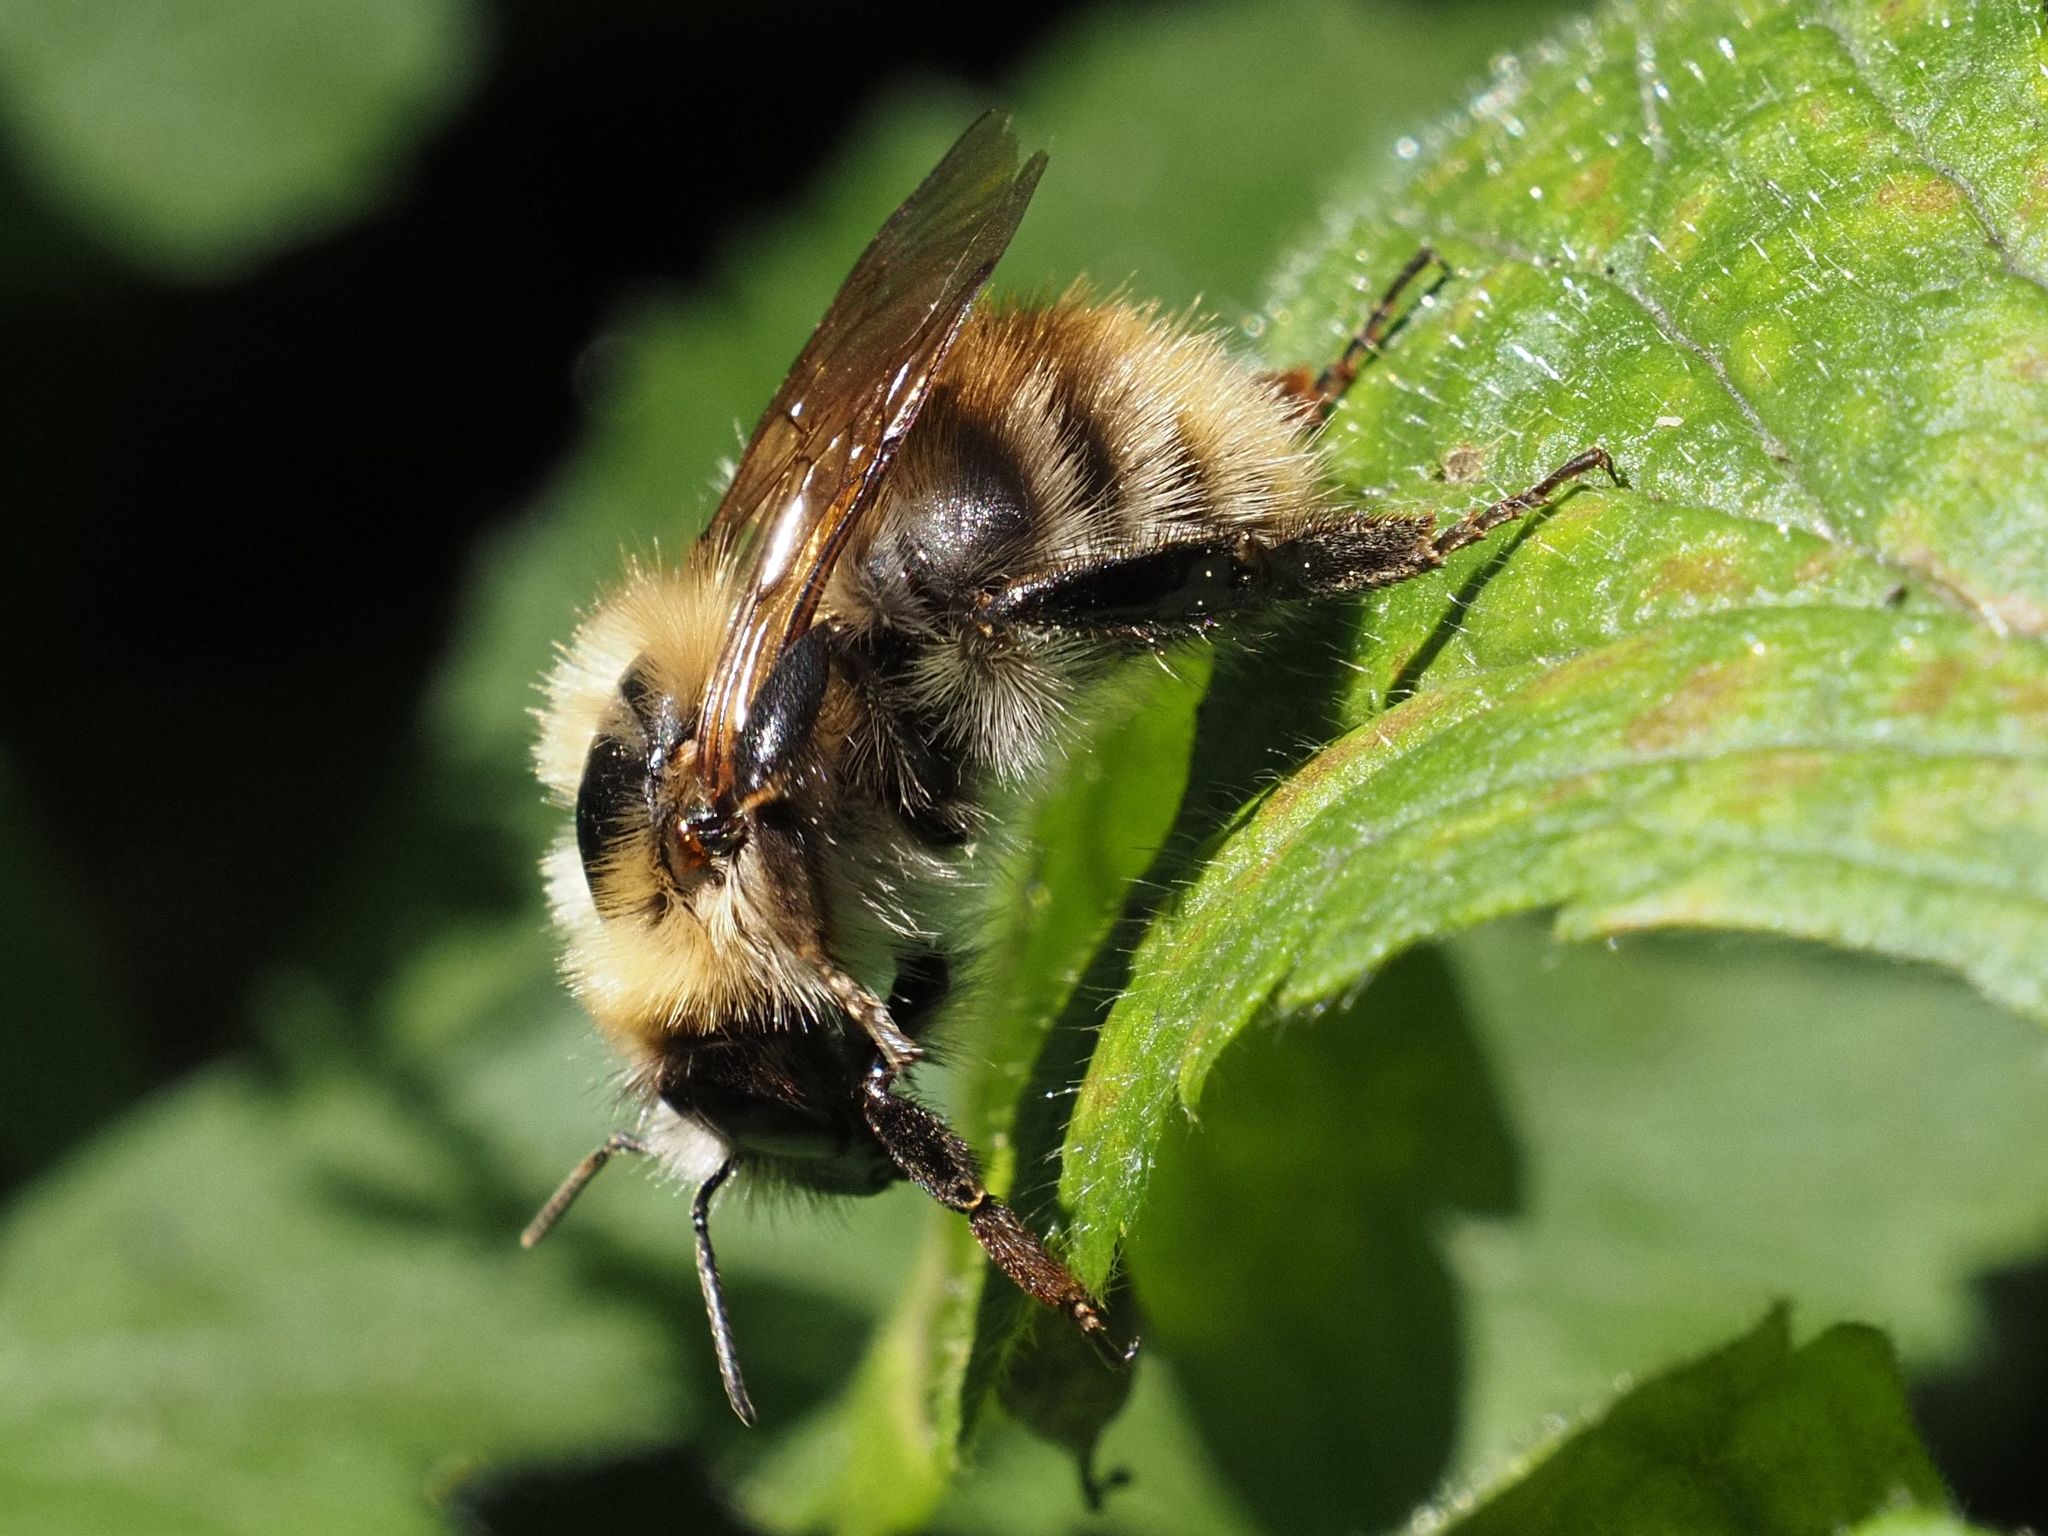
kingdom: Animalia
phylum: Arthropoda
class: Insecta
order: Hymenoptera
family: Apidae
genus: Bombus
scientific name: Bombus pascuorum
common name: Common carder bee
